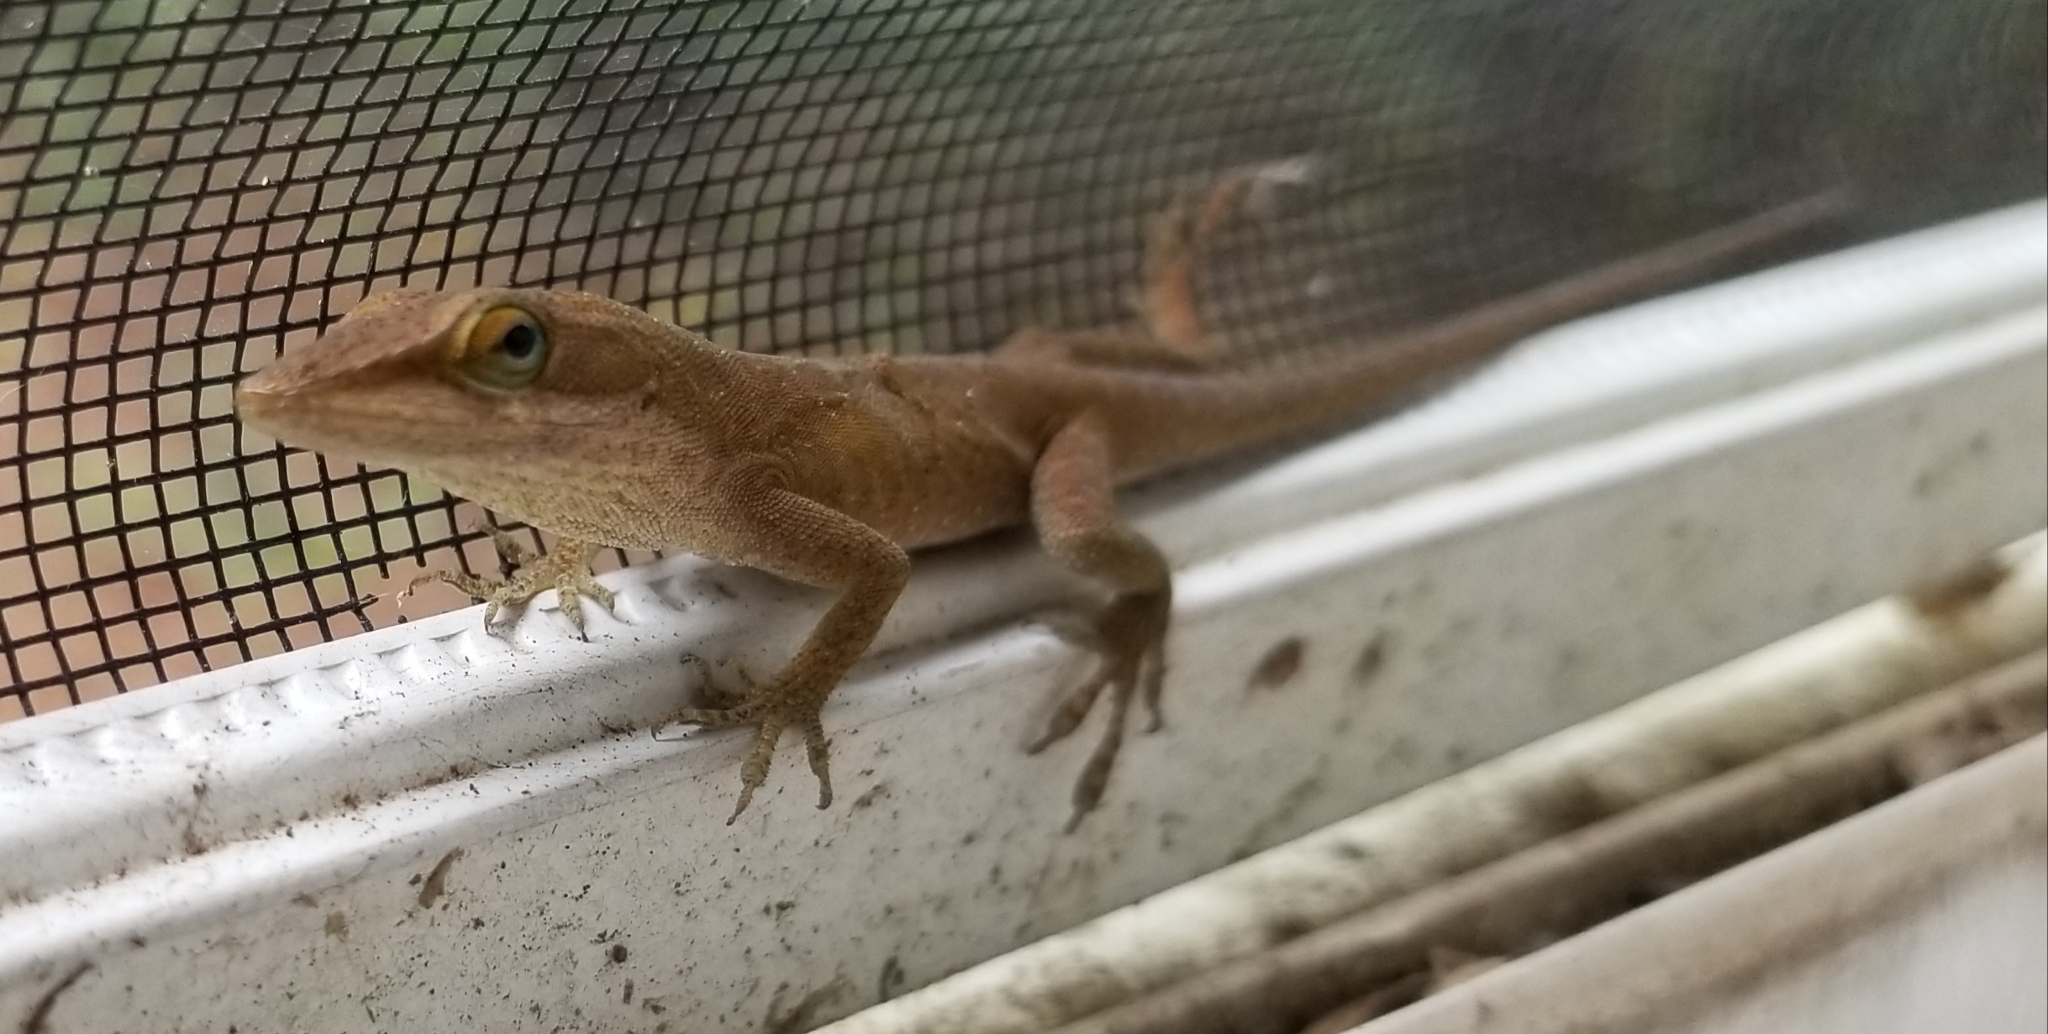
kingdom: Animalia
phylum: Chordata
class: Squamata
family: Dactyloidae
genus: Anolis
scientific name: Anolis carolinensis
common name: Green anole
